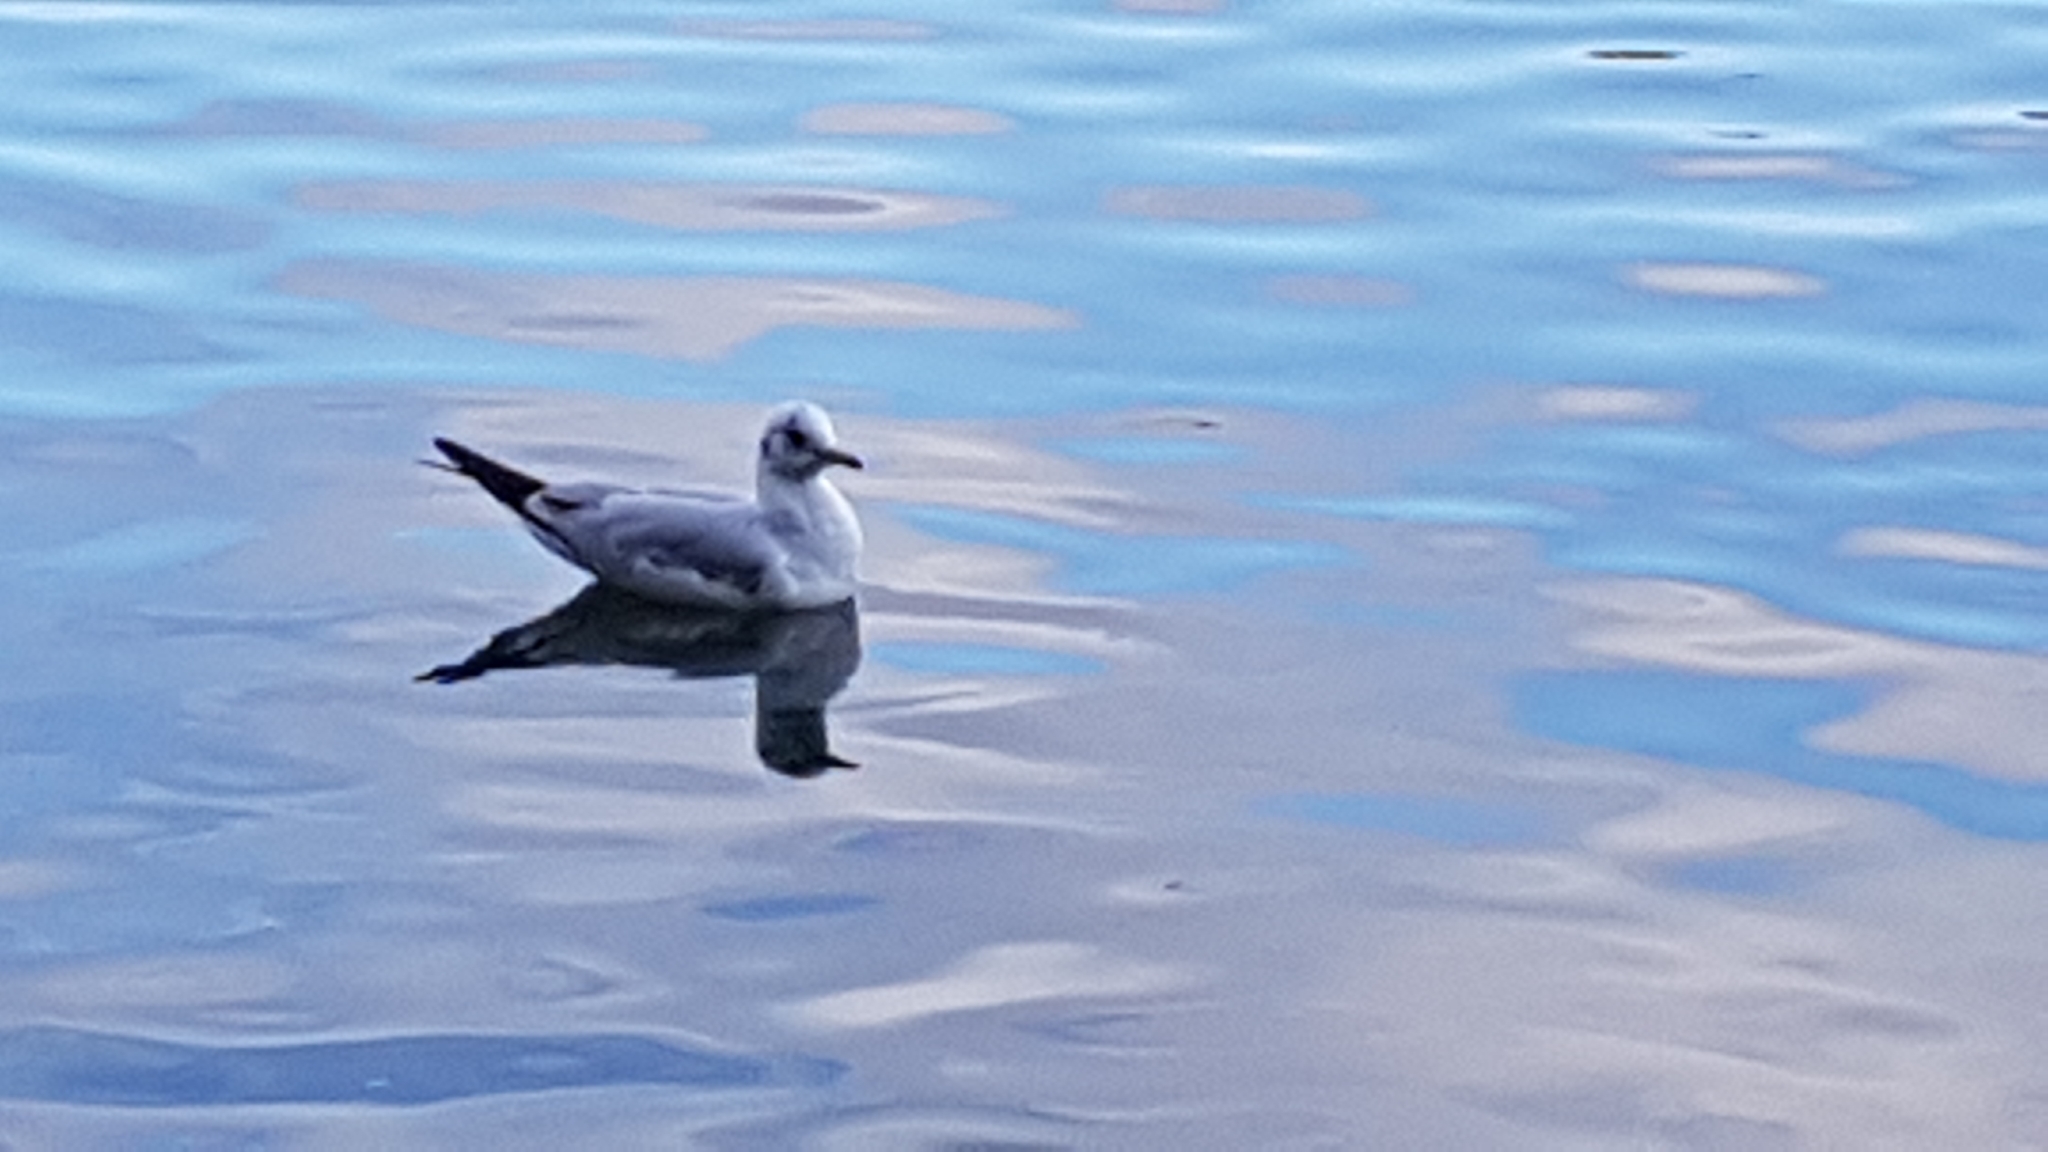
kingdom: Animalia
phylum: Chordata
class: Aves
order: Charadriiformes
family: Laridae
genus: Chroicocephalus
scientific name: Chroicocephalus ridibundus
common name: Black-headed gull
